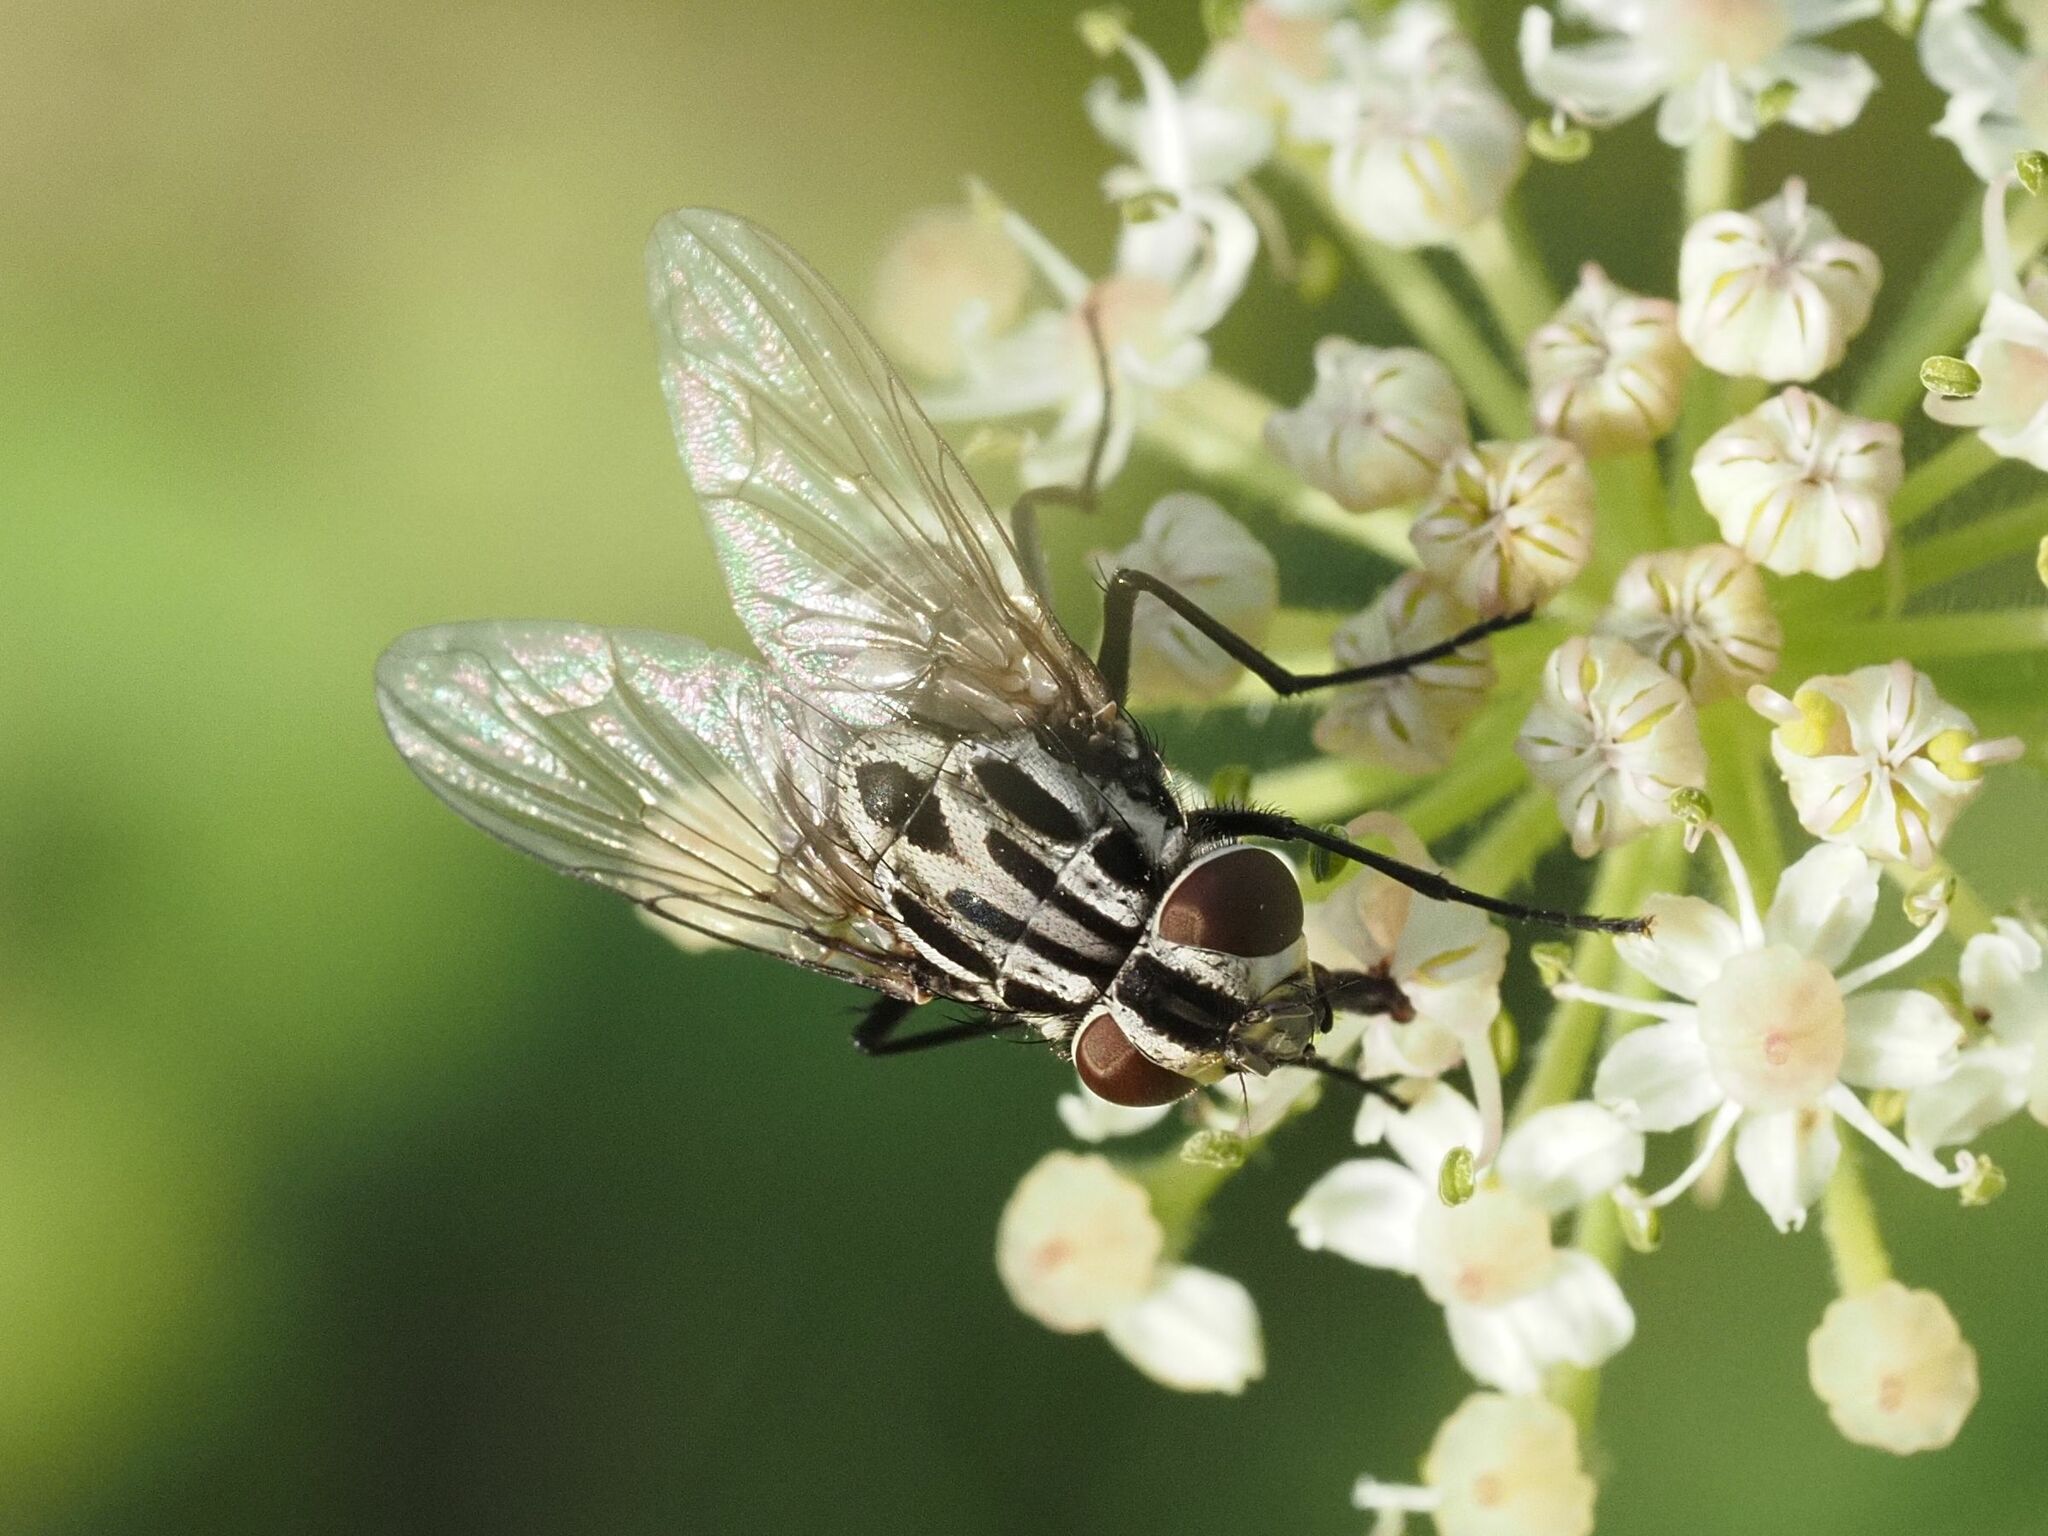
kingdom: Animalia
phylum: Arthropoda
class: Insecta
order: Diptera
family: Muscidae
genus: Graphomya
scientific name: Graphomya maculata
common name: Muscid fly
